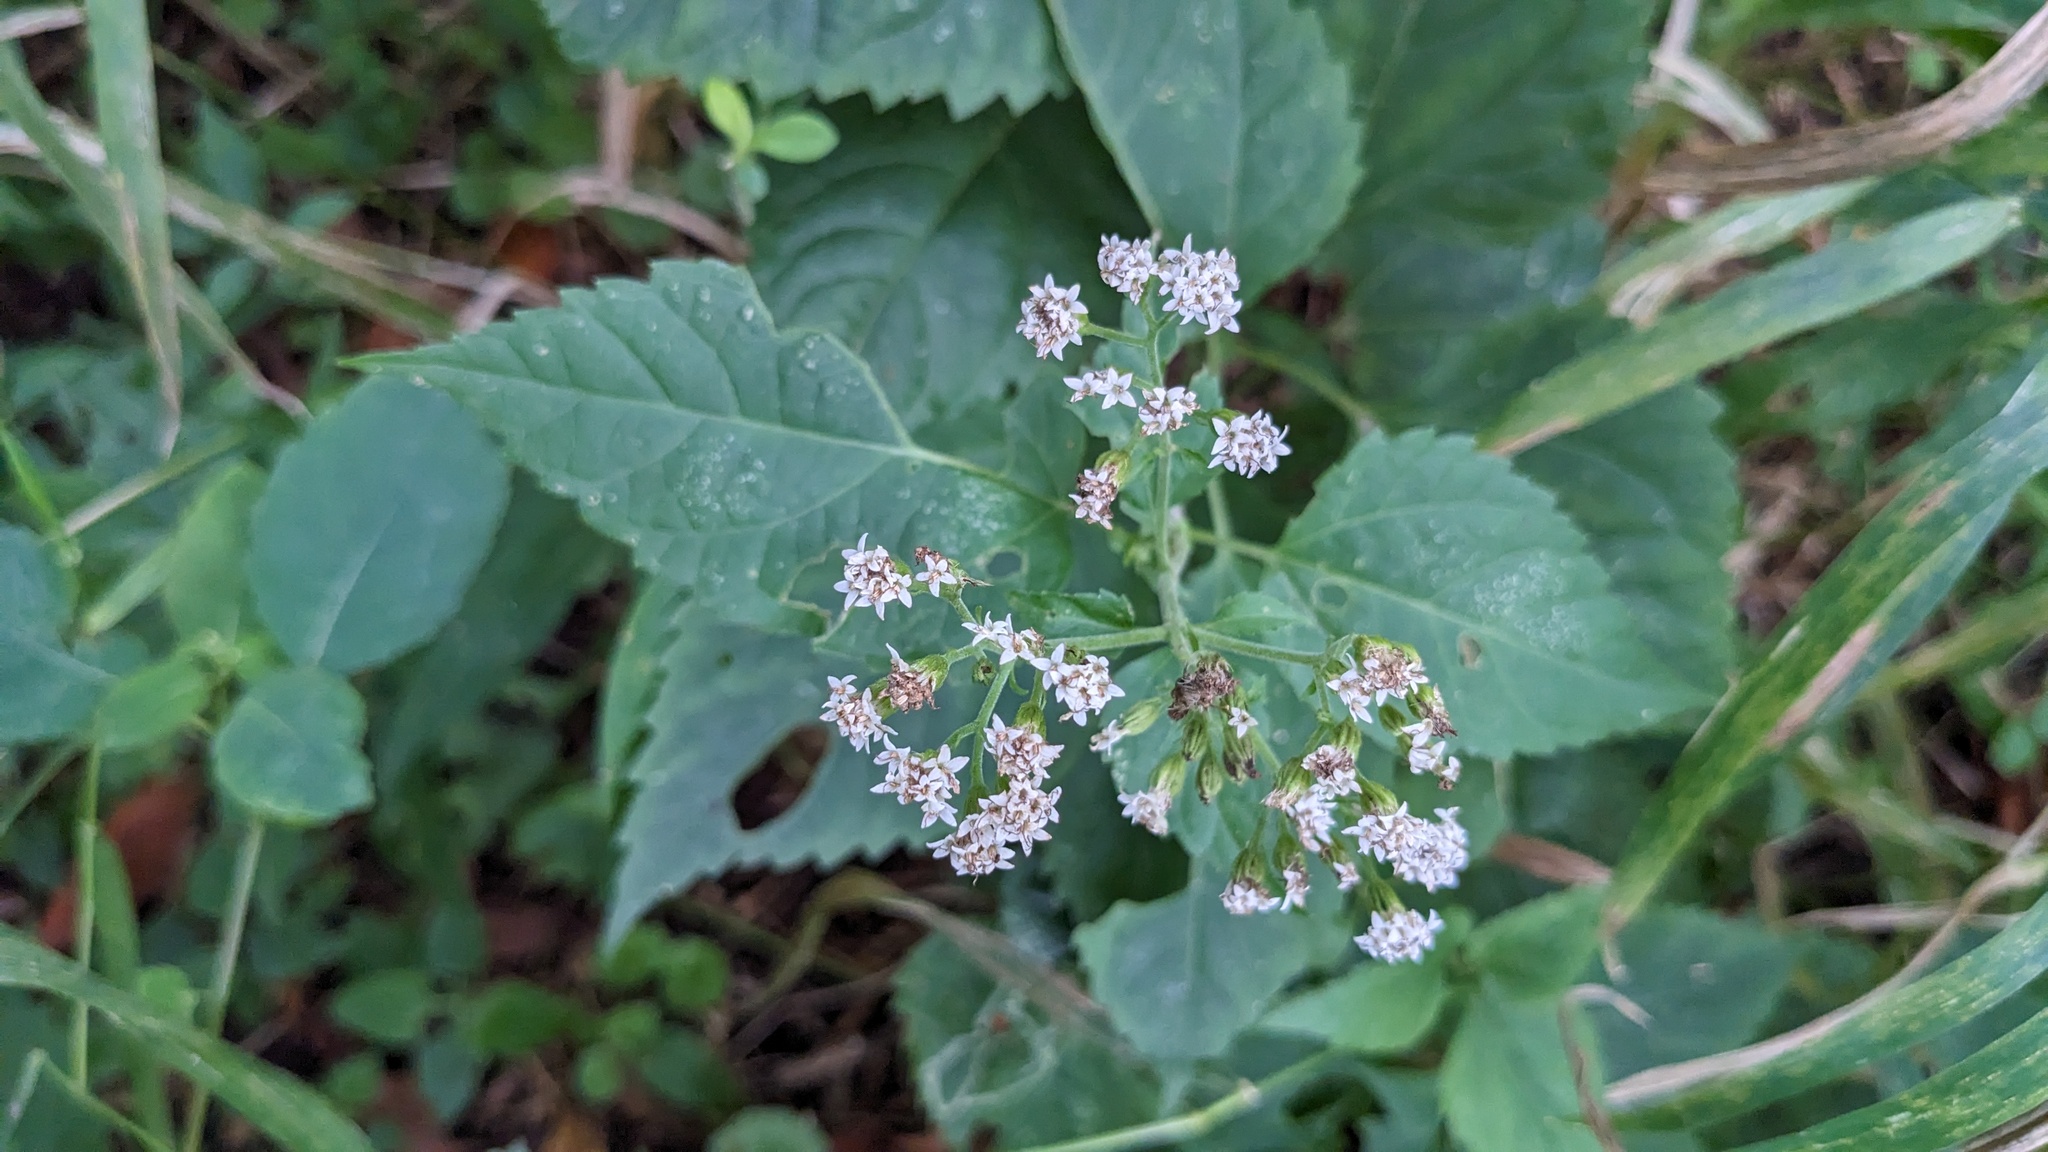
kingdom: Plantae
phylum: Tracheophyta
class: Magnoliopsida
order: Asterales
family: Asteraceae
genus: Ageratina
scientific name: Ageratina altissima
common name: White snakeroot
